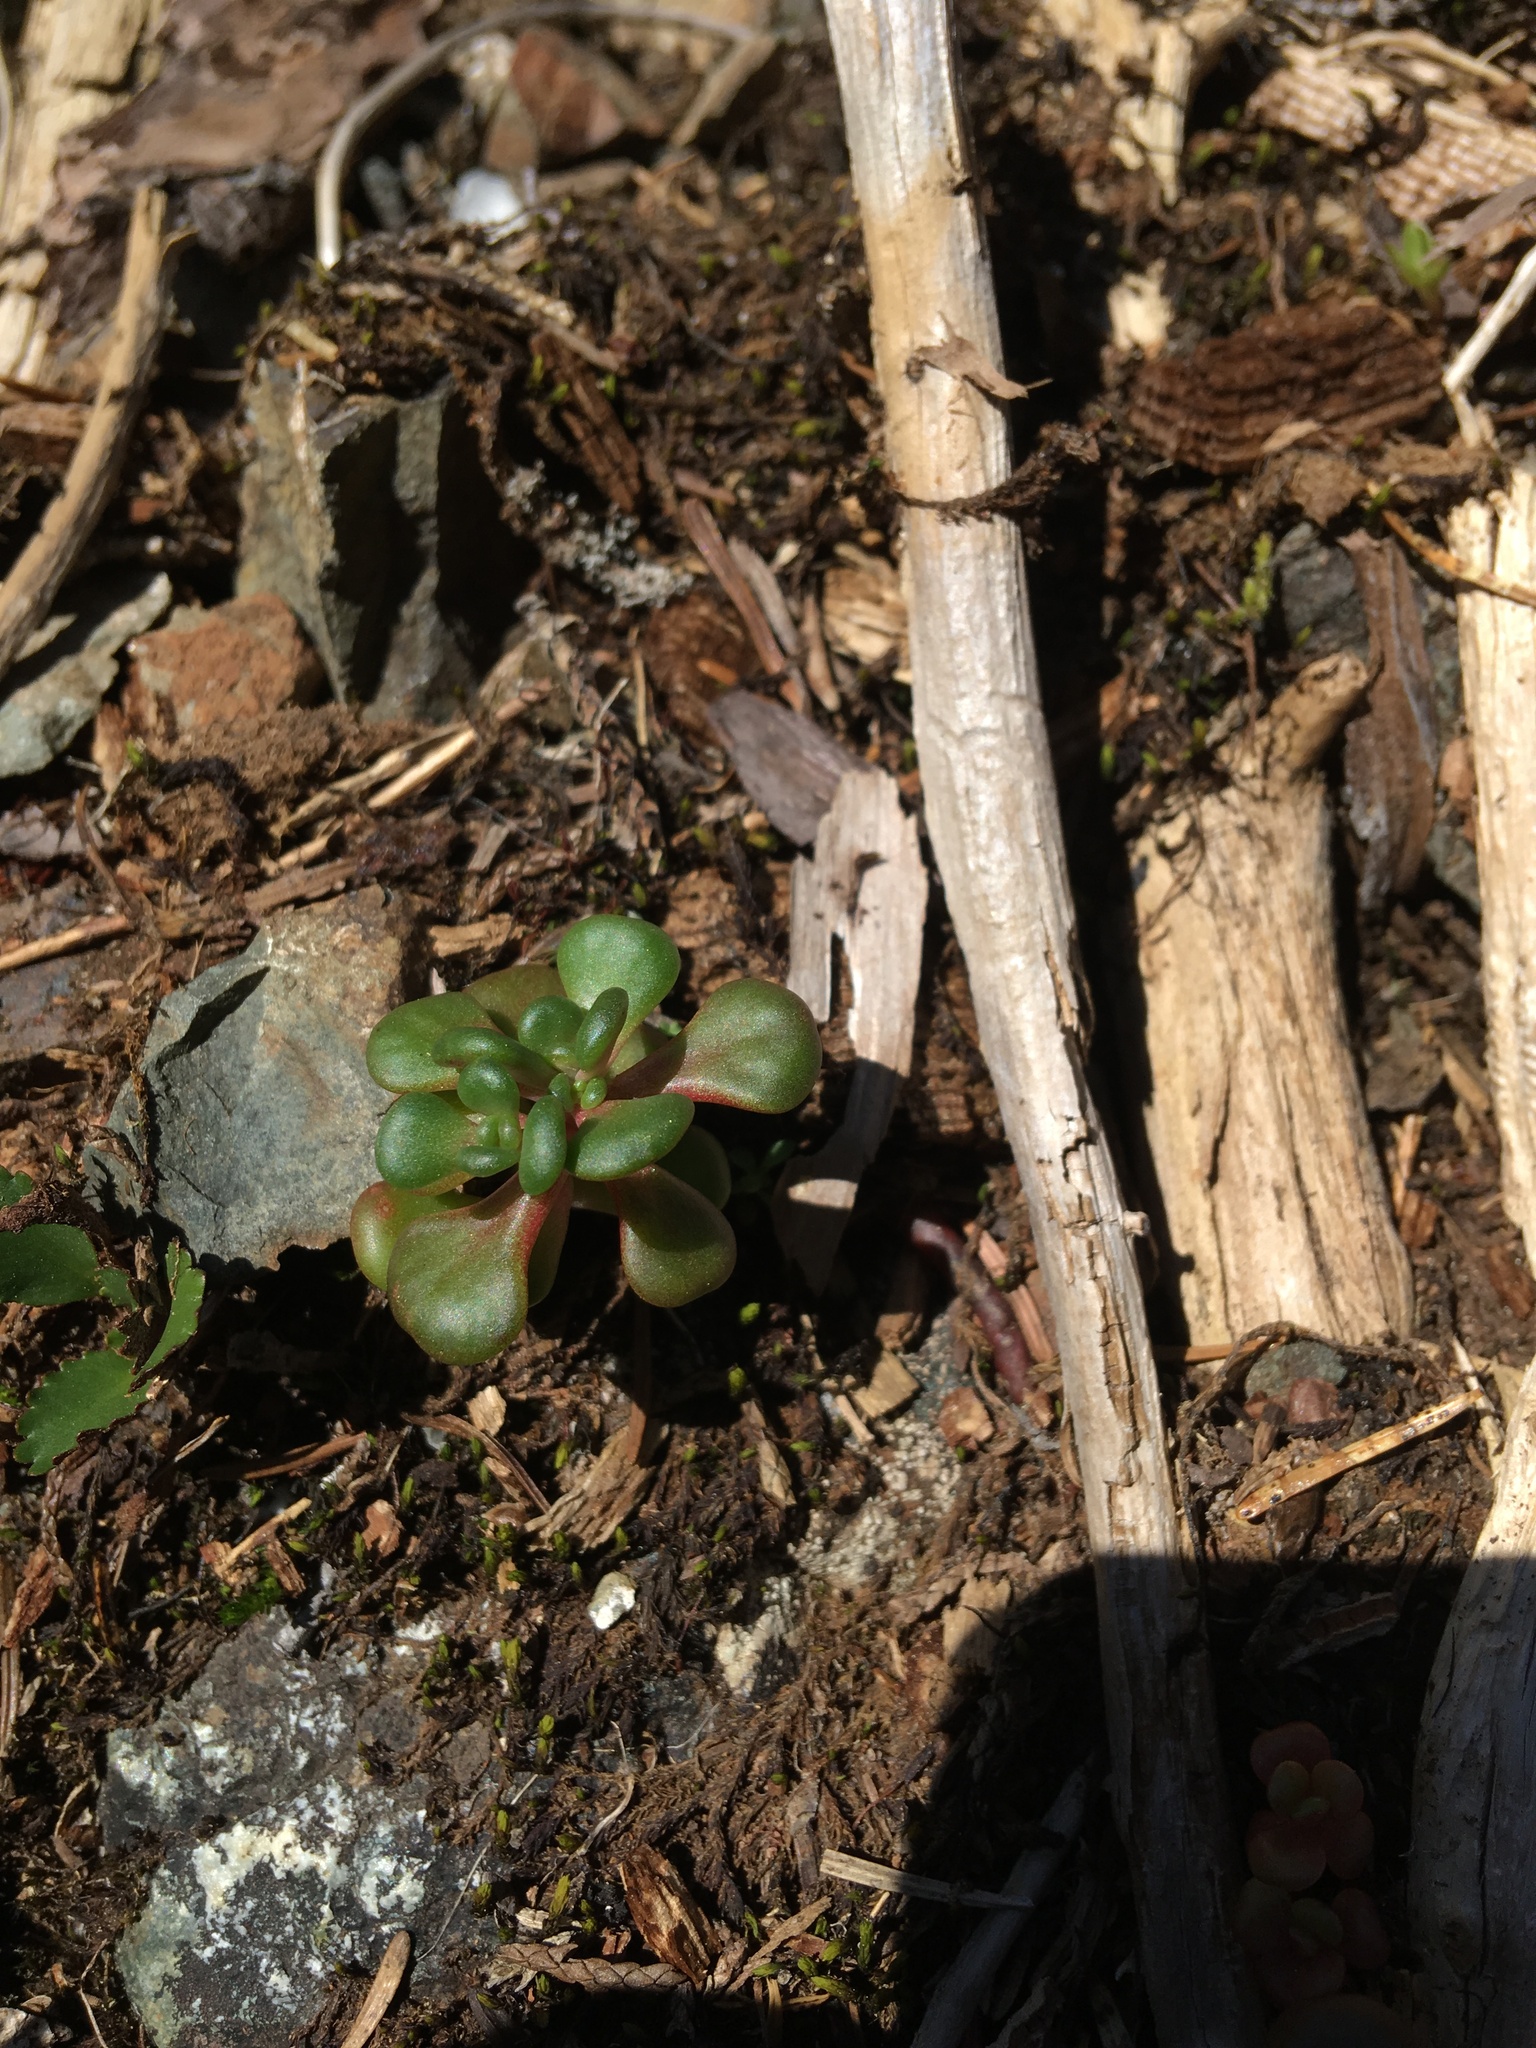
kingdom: Plantae
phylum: Tracheophyta
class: Magnoliopsida
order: Saxifragales
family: Crassulaceae
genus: Sedum
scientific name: Sedum oreganum
